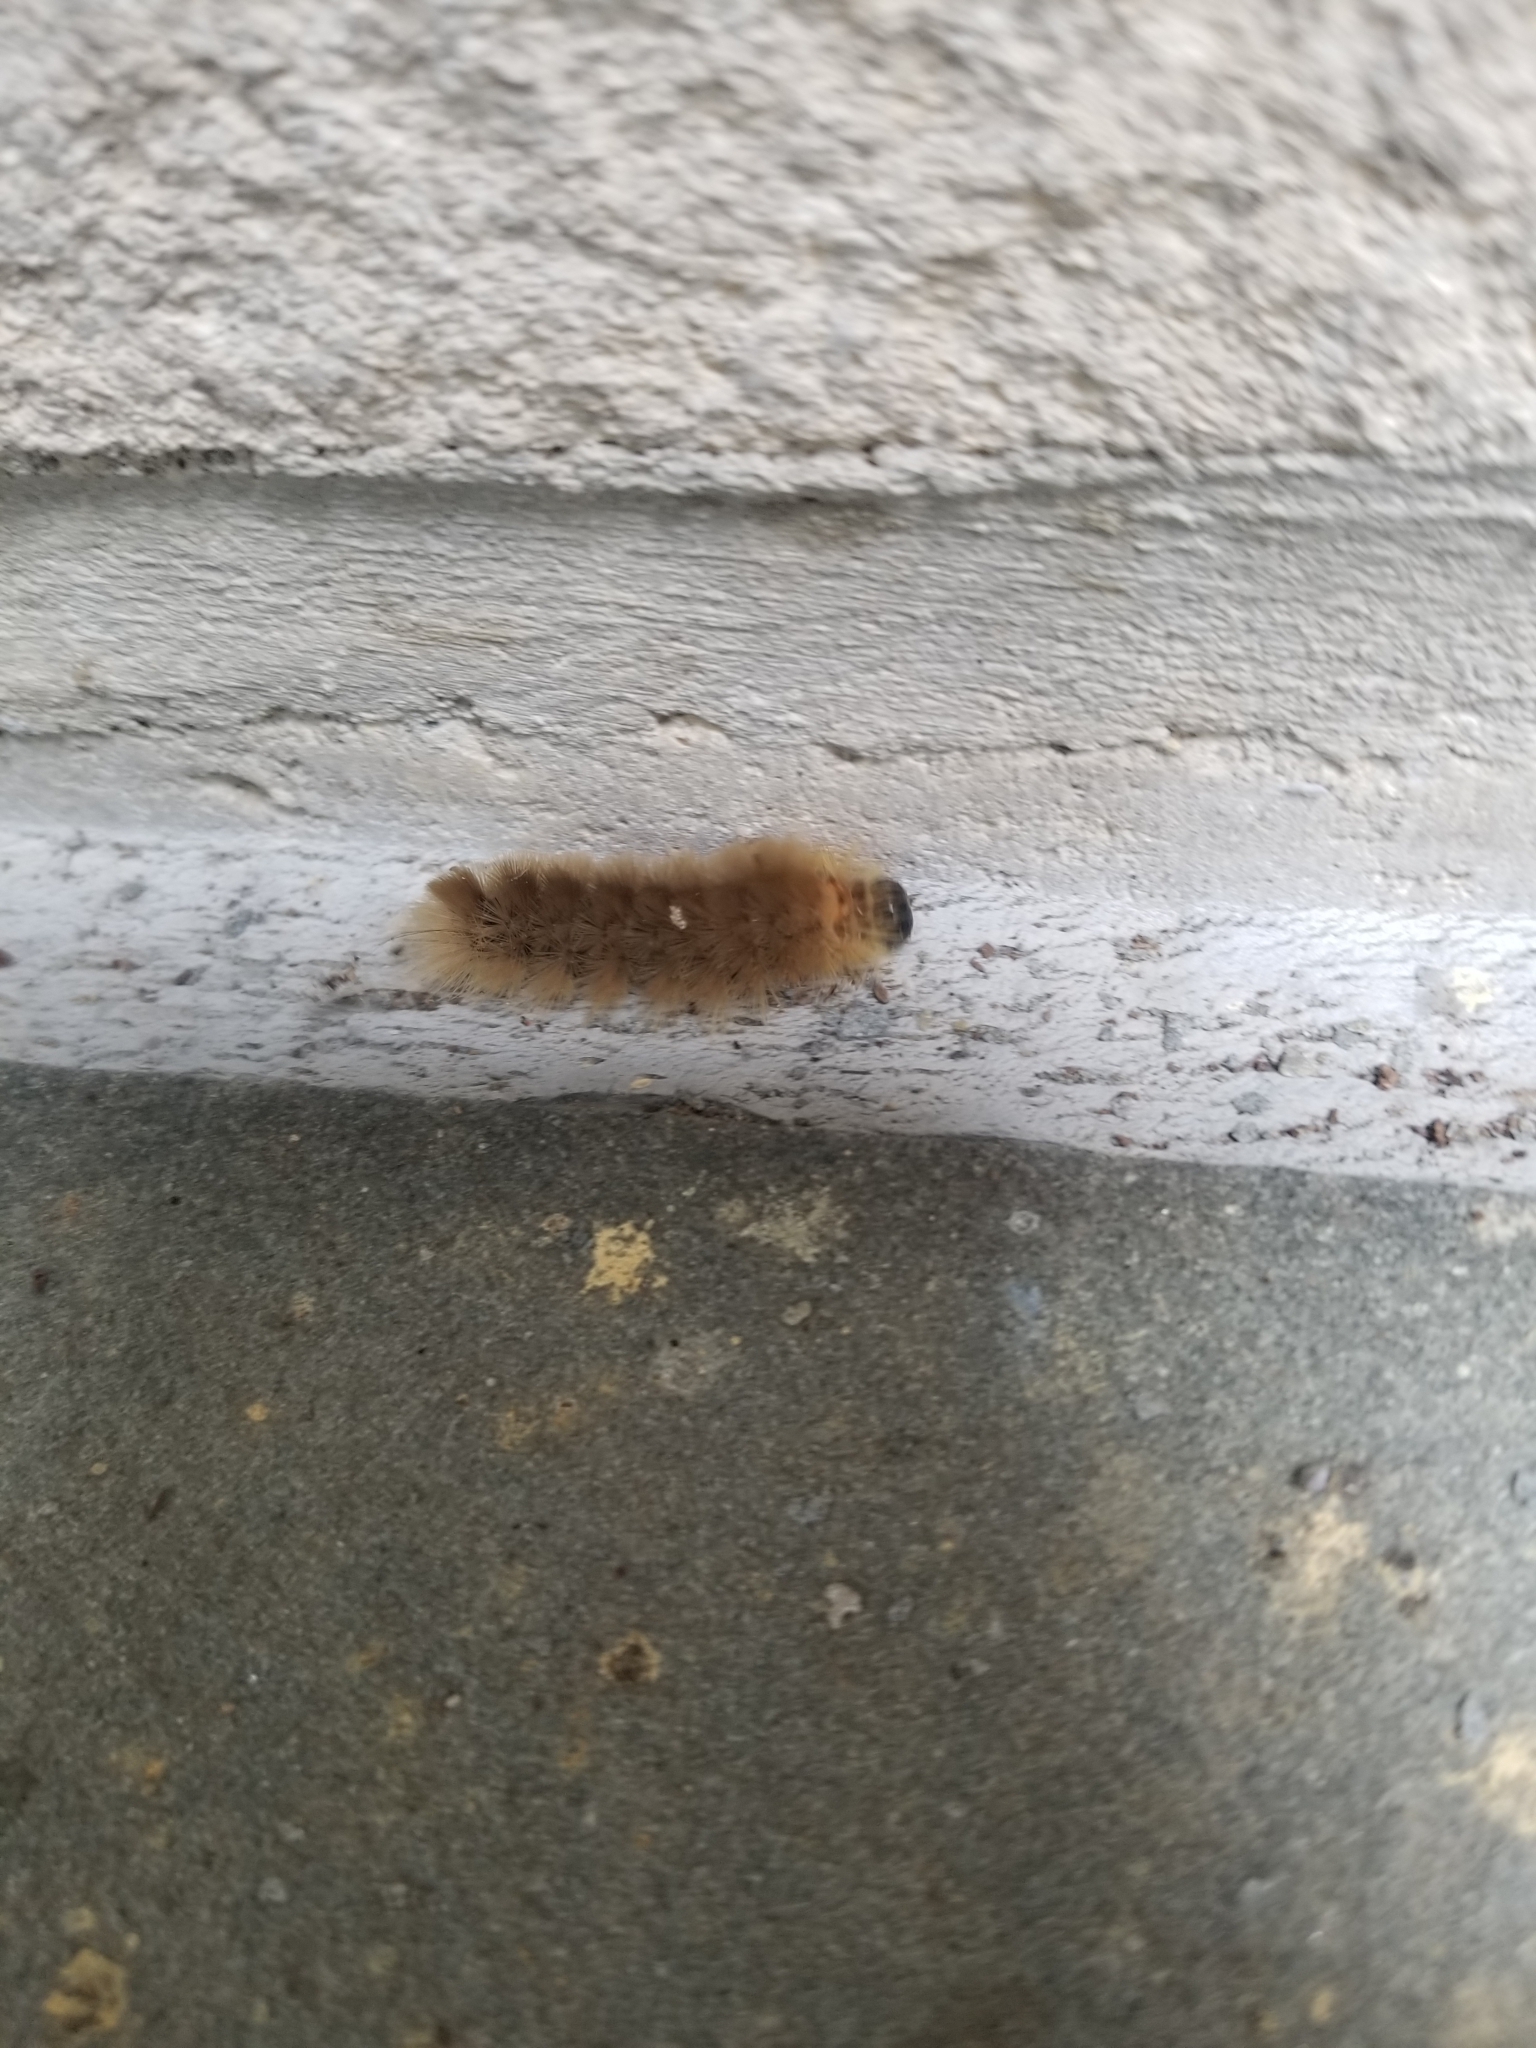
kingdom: Animalia
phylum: Arthropoda
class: Insecta
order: Lepidoptera
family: Erebidae
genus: Halysidota
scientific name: Halysidota tessellaris
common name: Banded tussock moth
